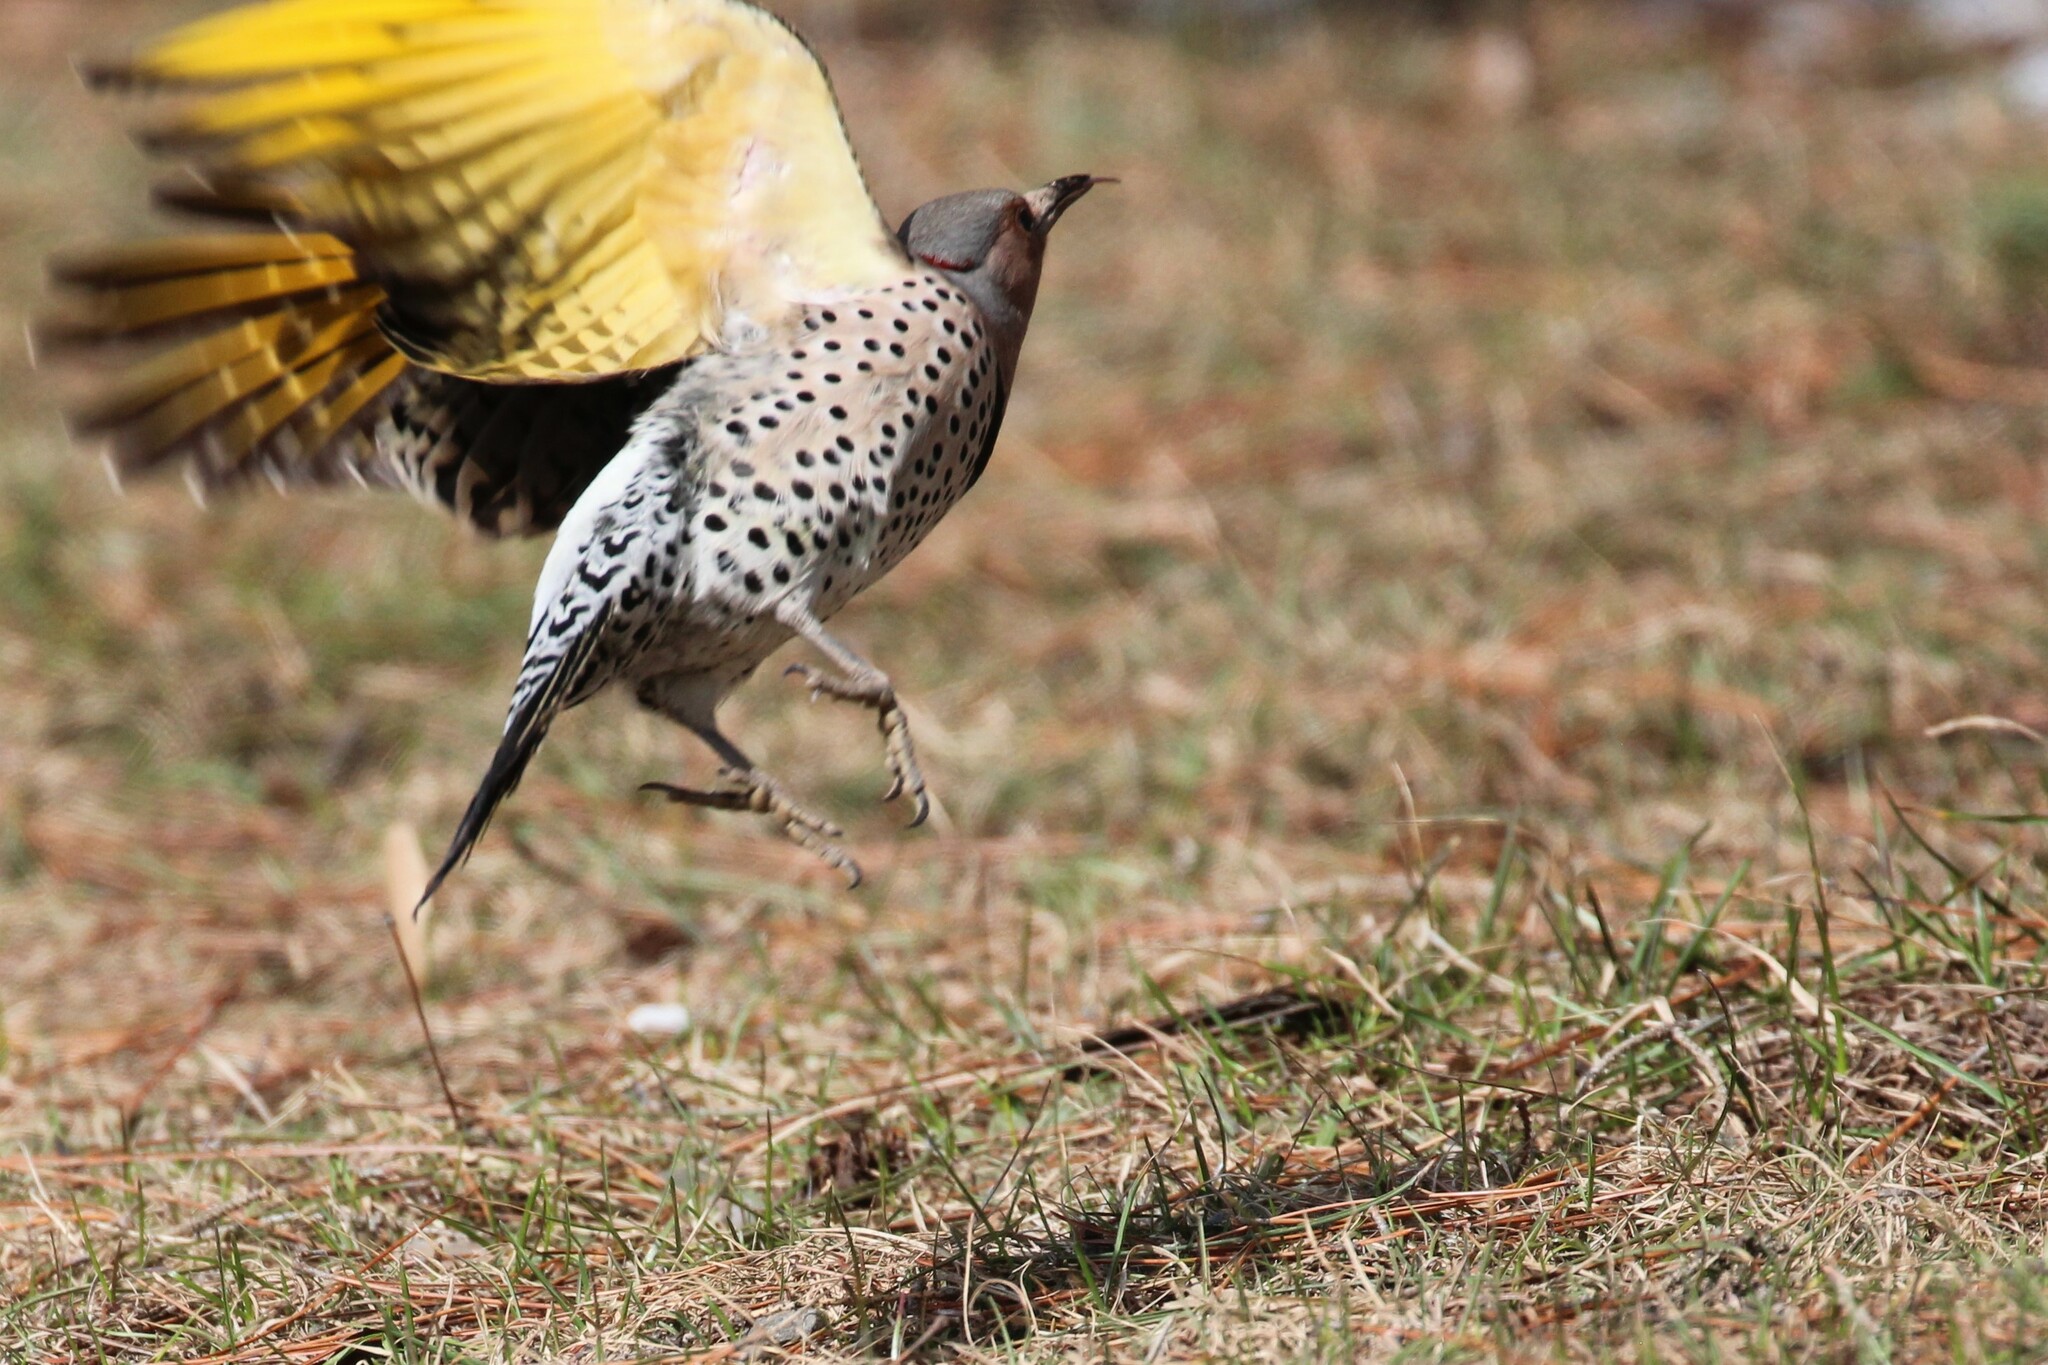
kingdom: Animalia
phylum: Chordata
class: Aves
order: Piciformes
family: Picidae
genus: Colaptes
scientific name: Colaptes auratus
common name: Northern flicker
